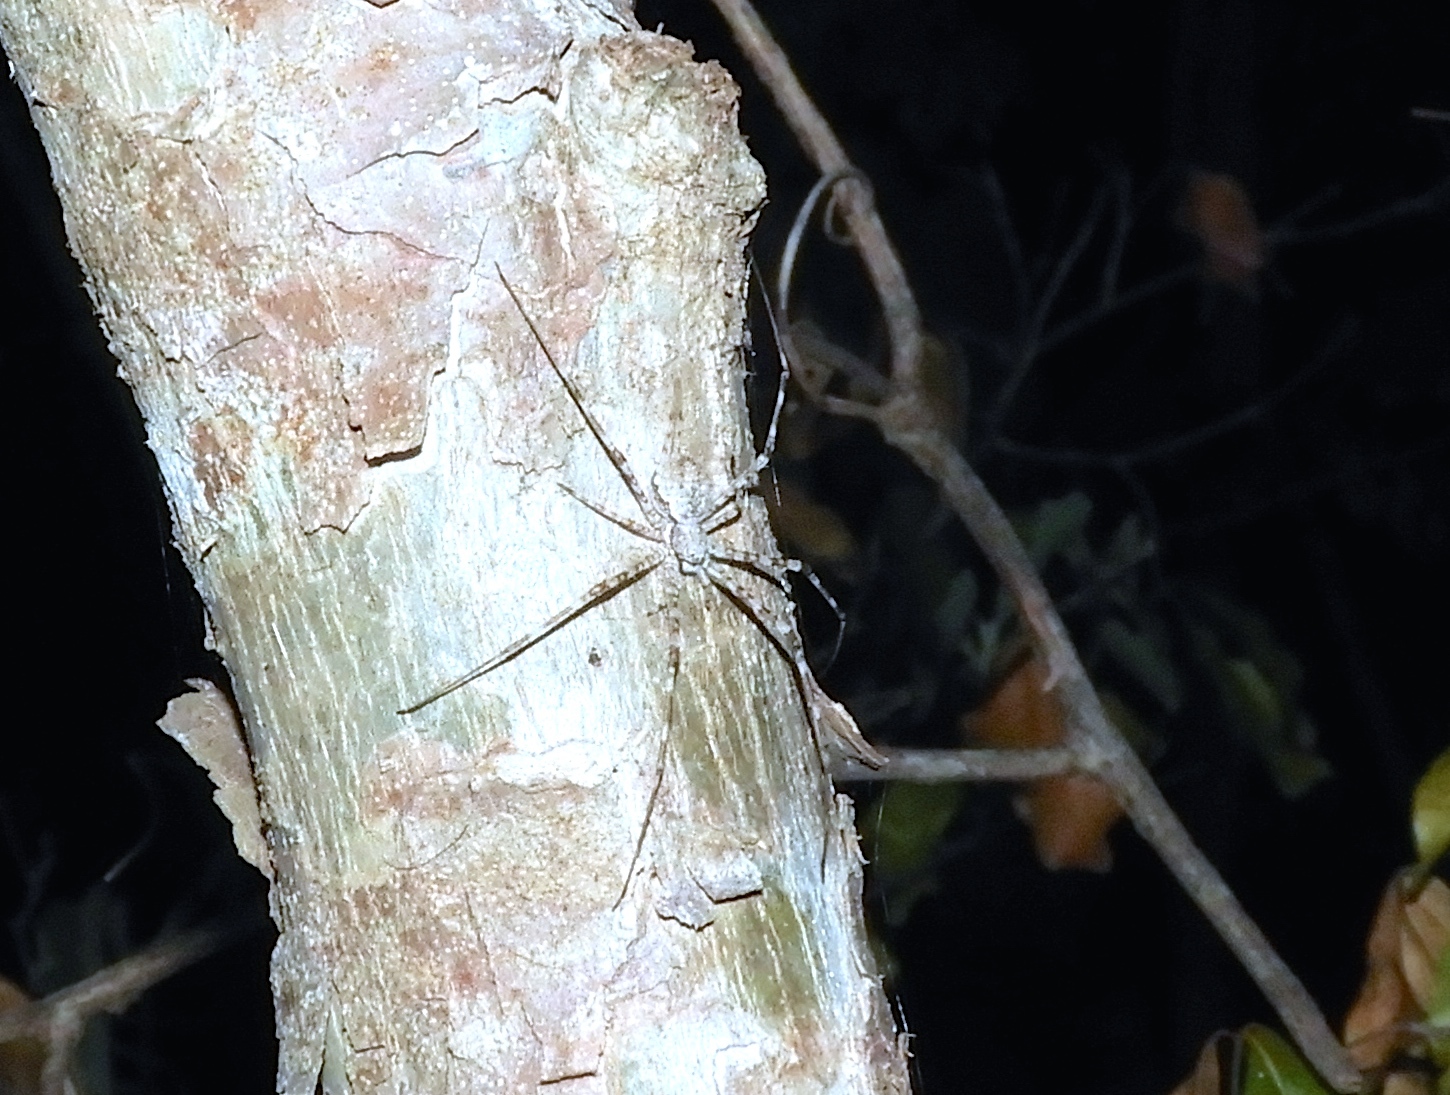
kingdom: Animalia
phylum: Arthropoda
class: Arachnida
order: Araneae
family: Hersiliidae
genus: Neotama
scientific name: Neotama mexicana
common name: Tree trunk spiders
